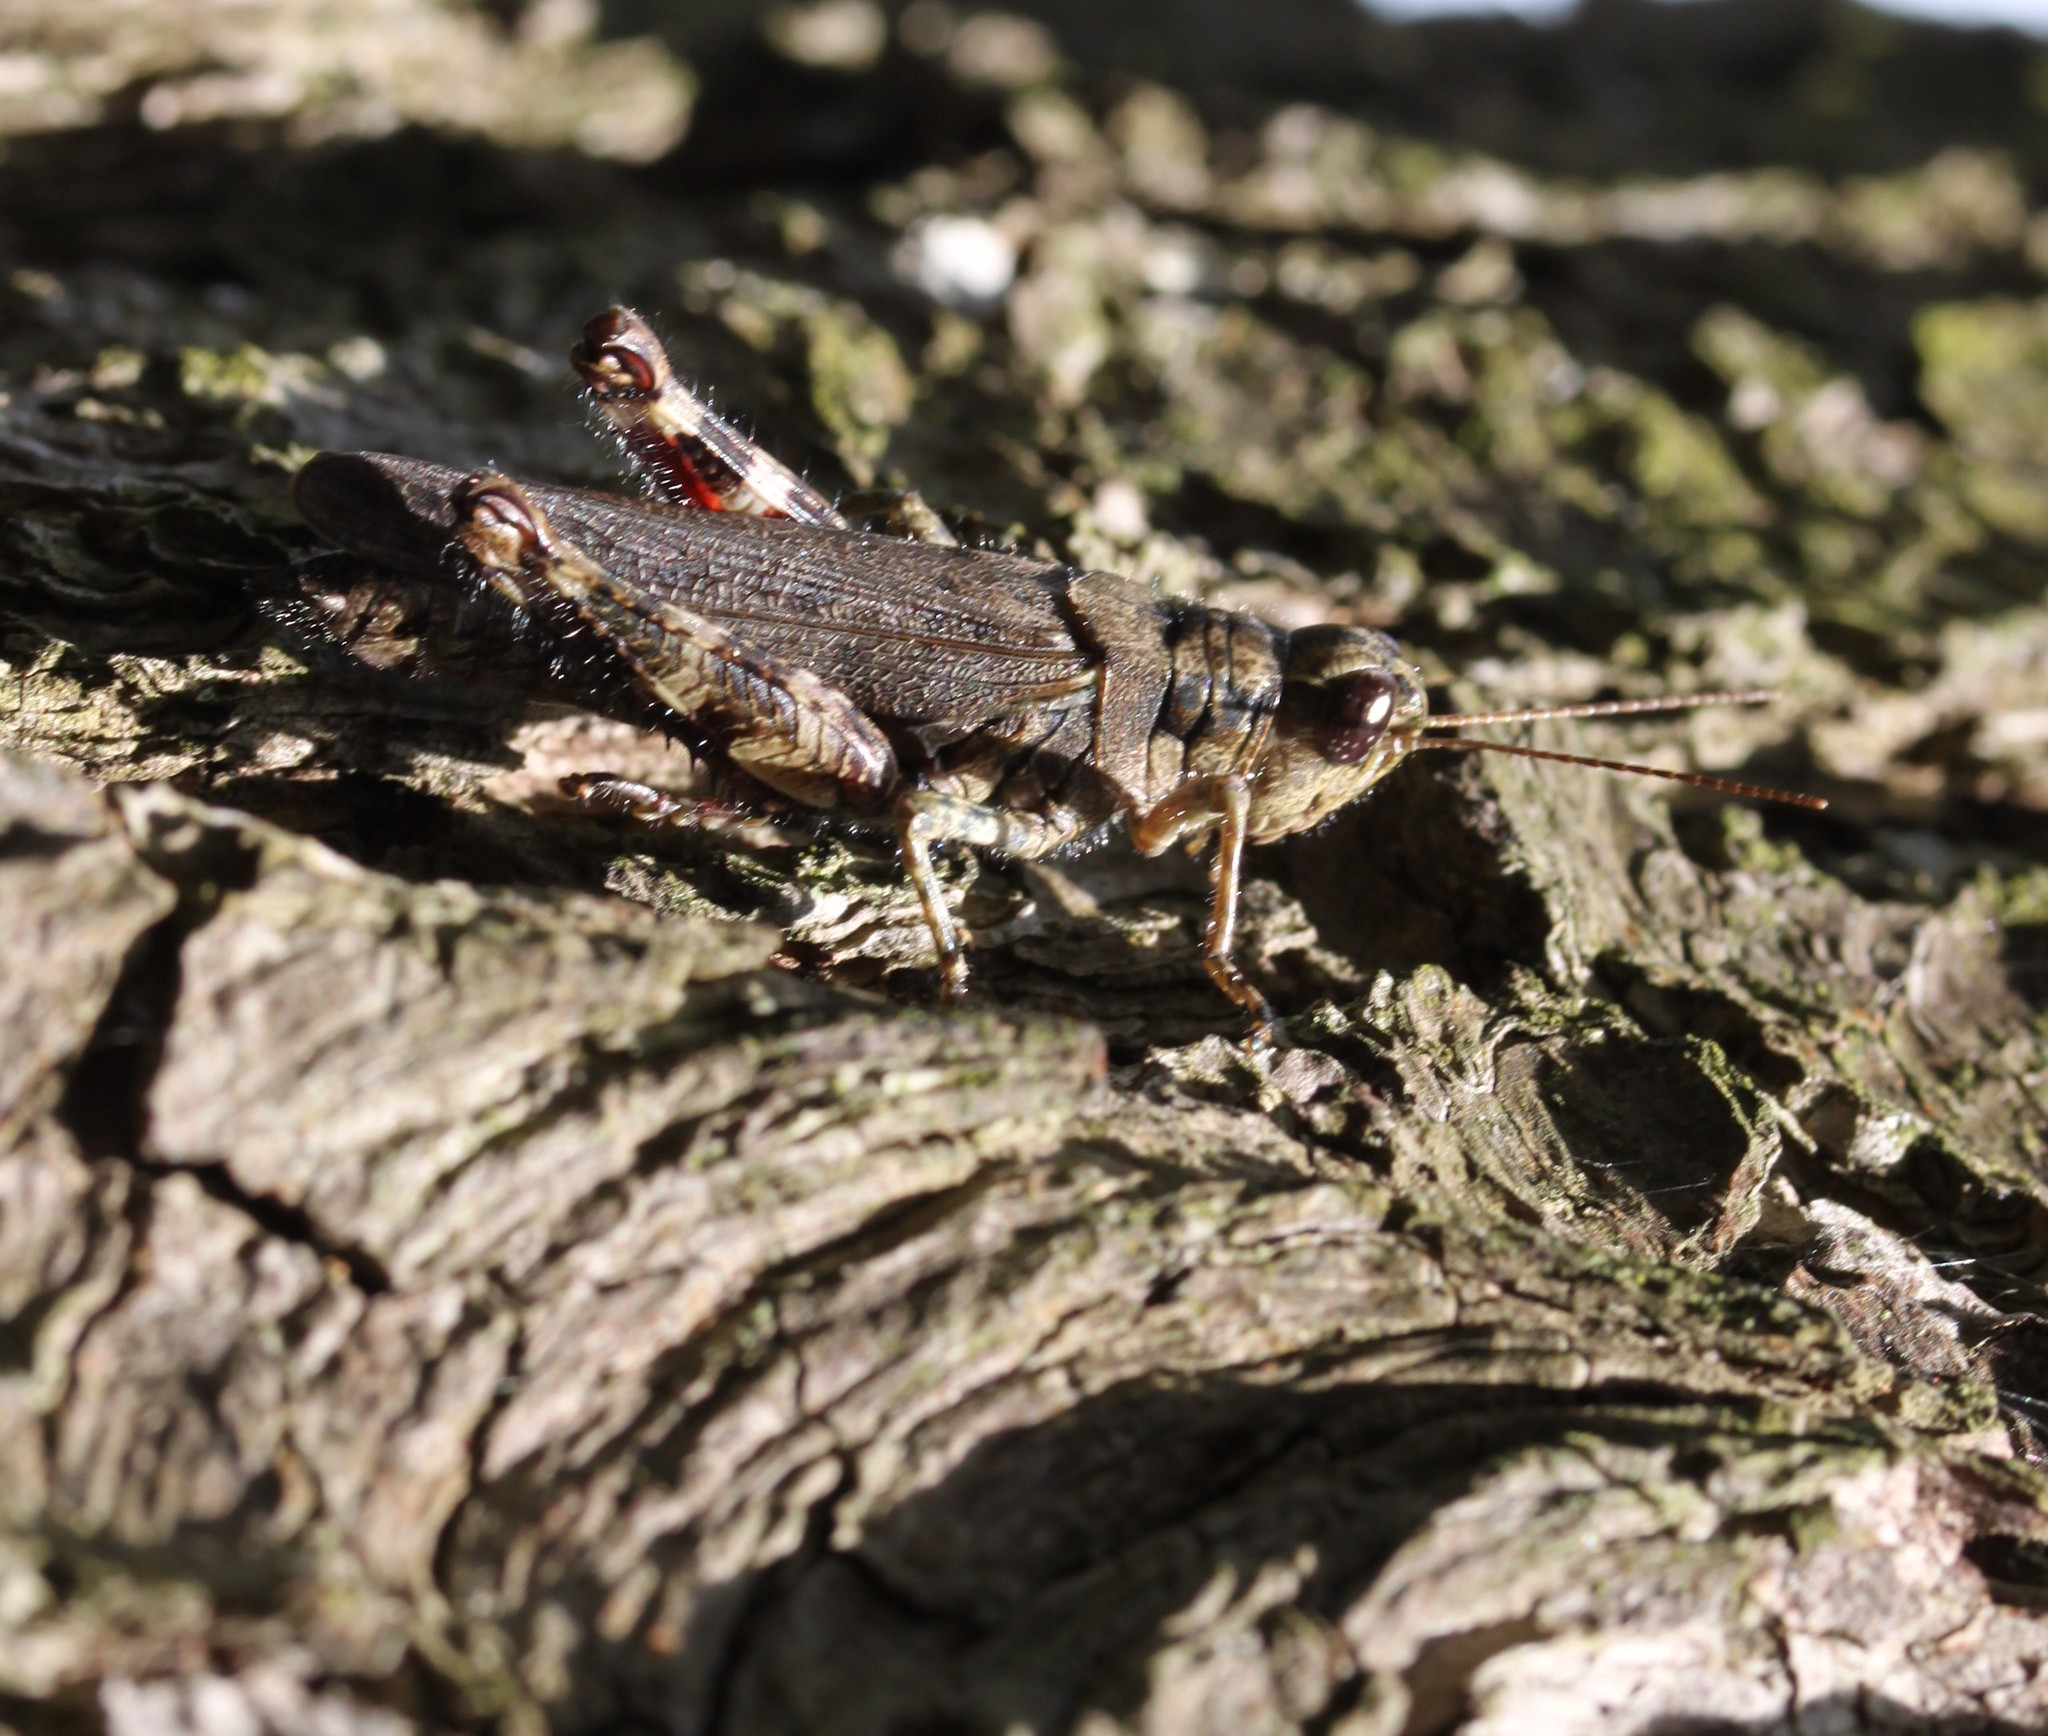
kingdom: Animalia
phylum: Arthropoda
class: Insecta
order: Orthoptera
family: Acrididae
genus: Melanoplus
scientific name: Melanoplus punctulatus
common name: Pine-tree spur-throat grasshopper
